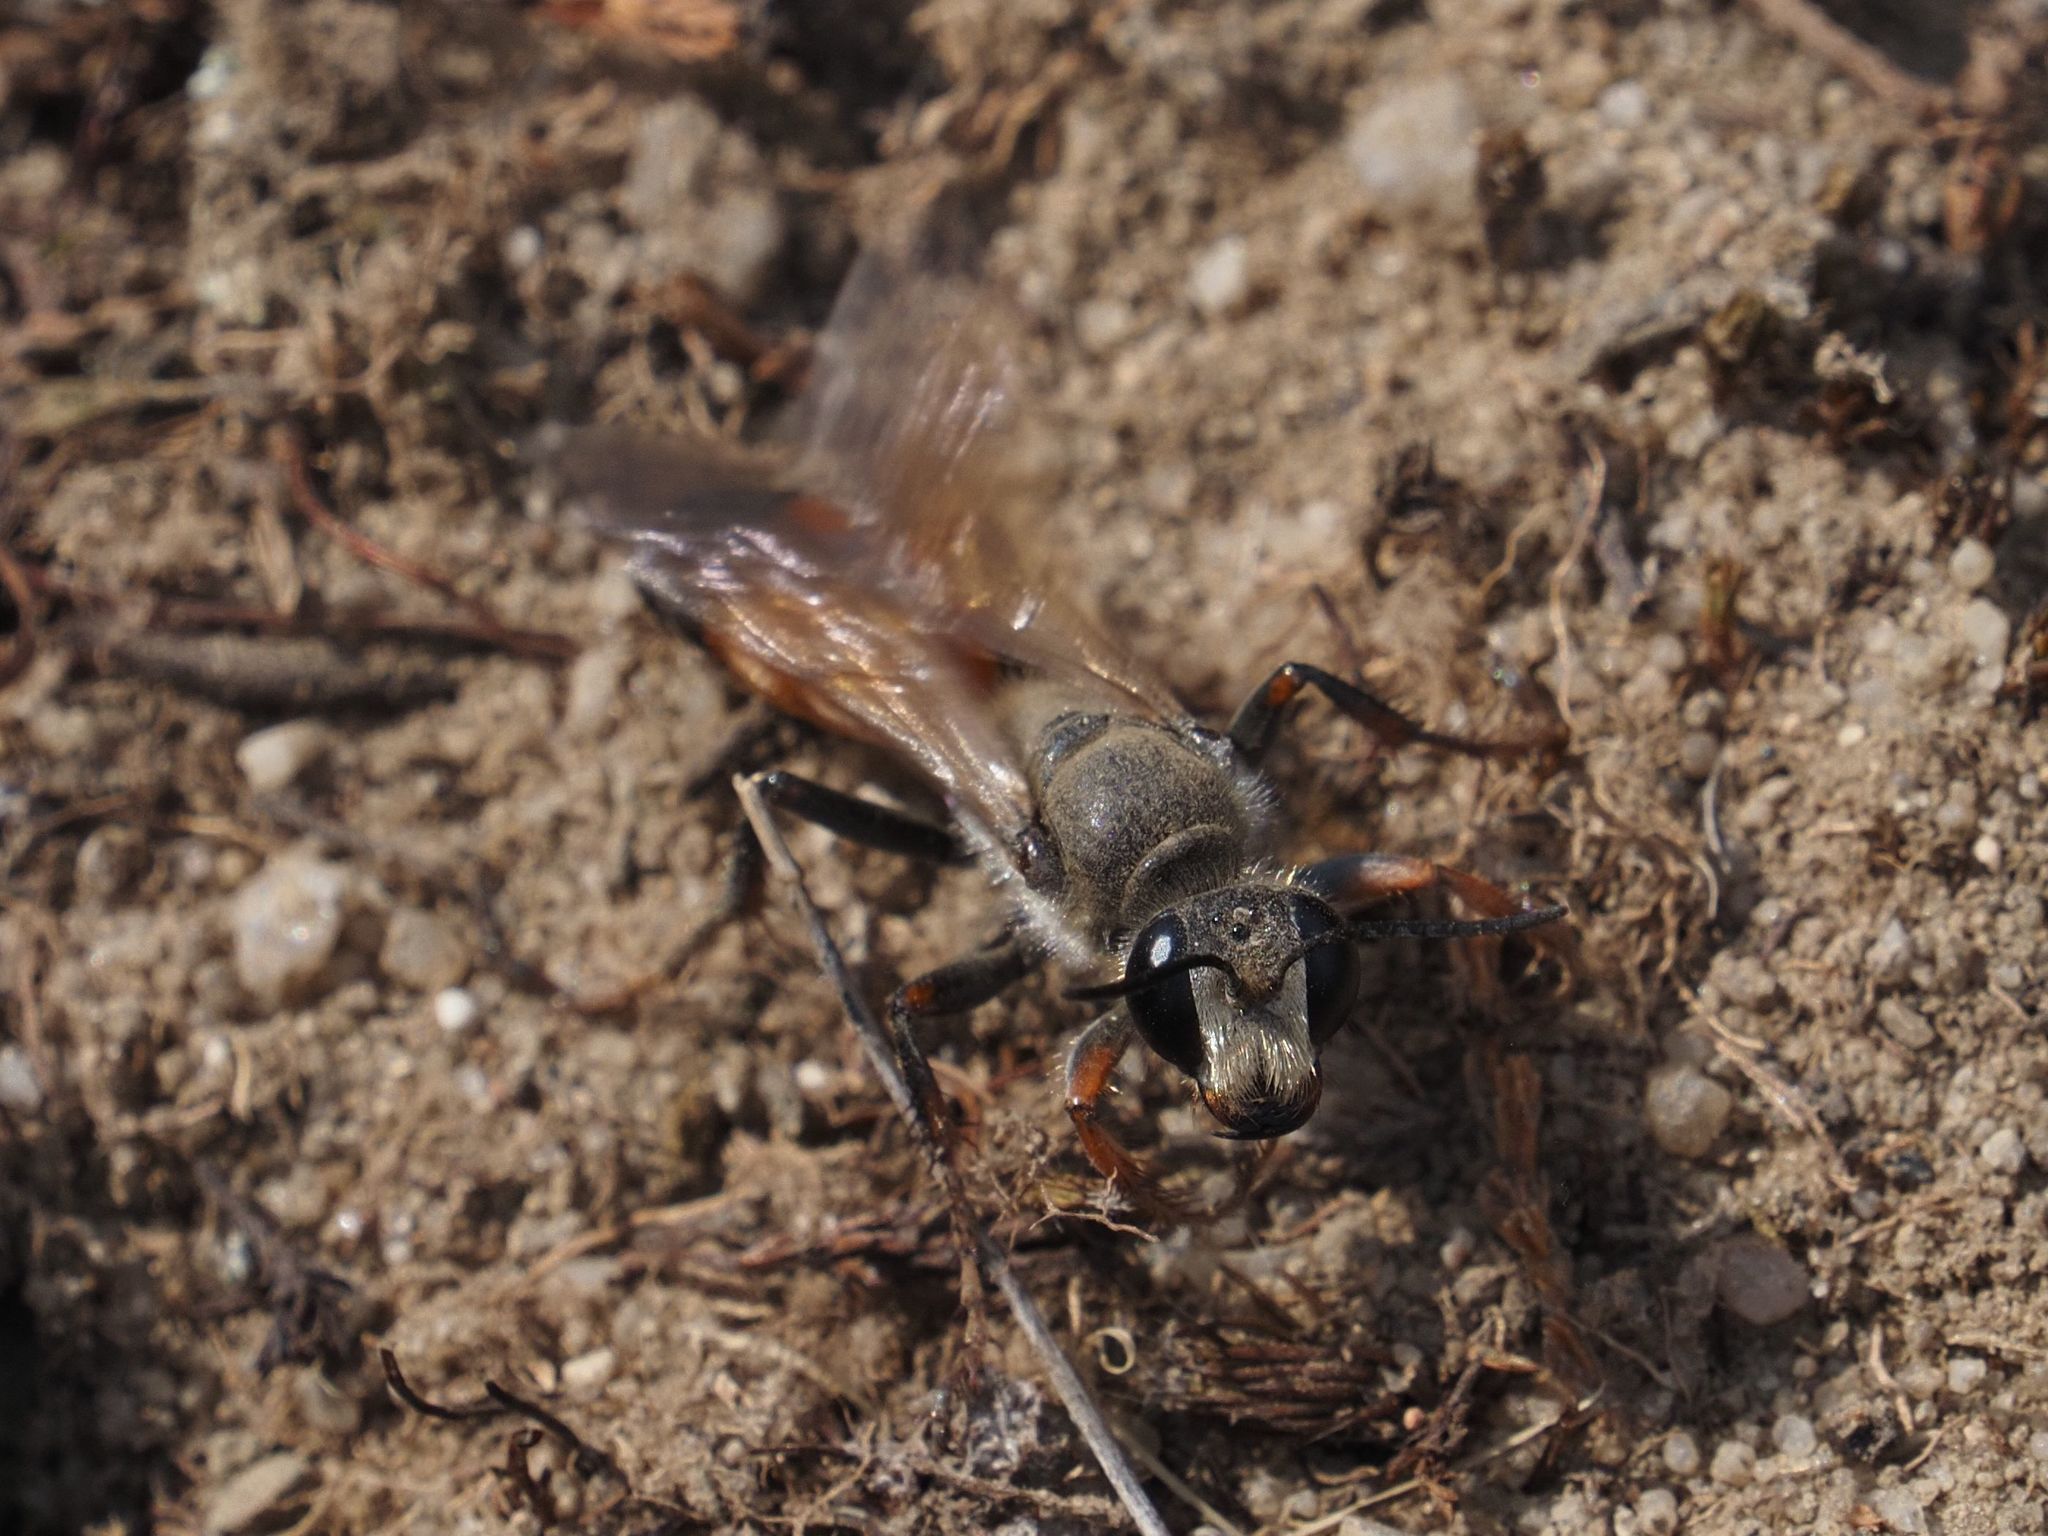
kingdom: Animalia
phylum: Arthropoda
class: Insecta
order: Hymenoptera
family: Sphecidae
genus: Sphex
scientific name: Sphex funerarius
